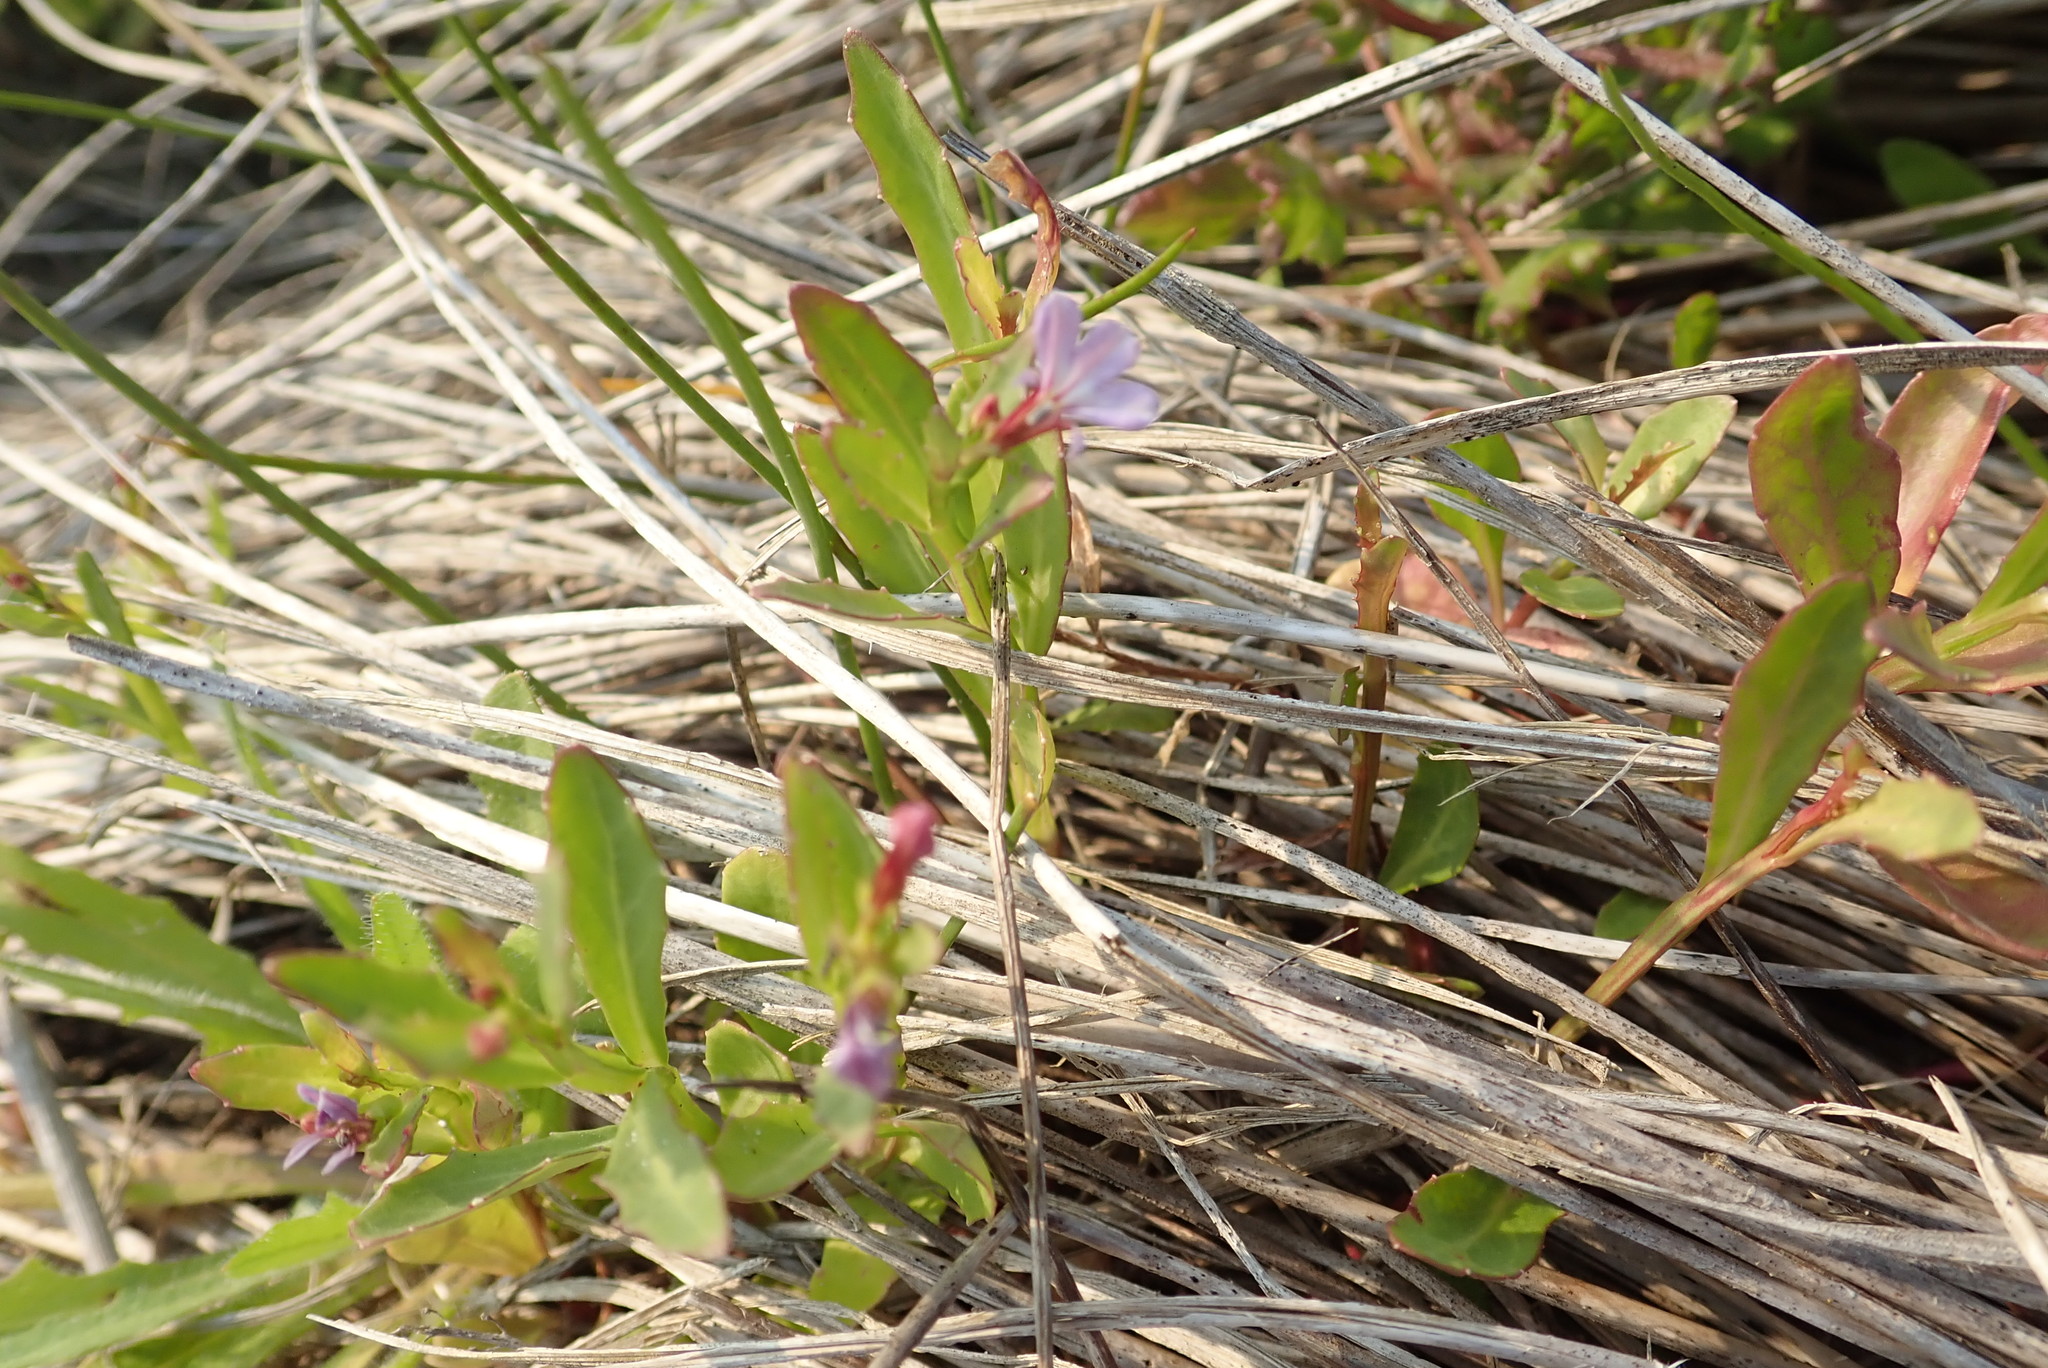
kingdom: Plantae
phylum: Tracheophyta
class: Magnoliopsida
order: Asterales
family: Campanulaceae
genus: Lobelia
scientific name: Lobelia anceps
